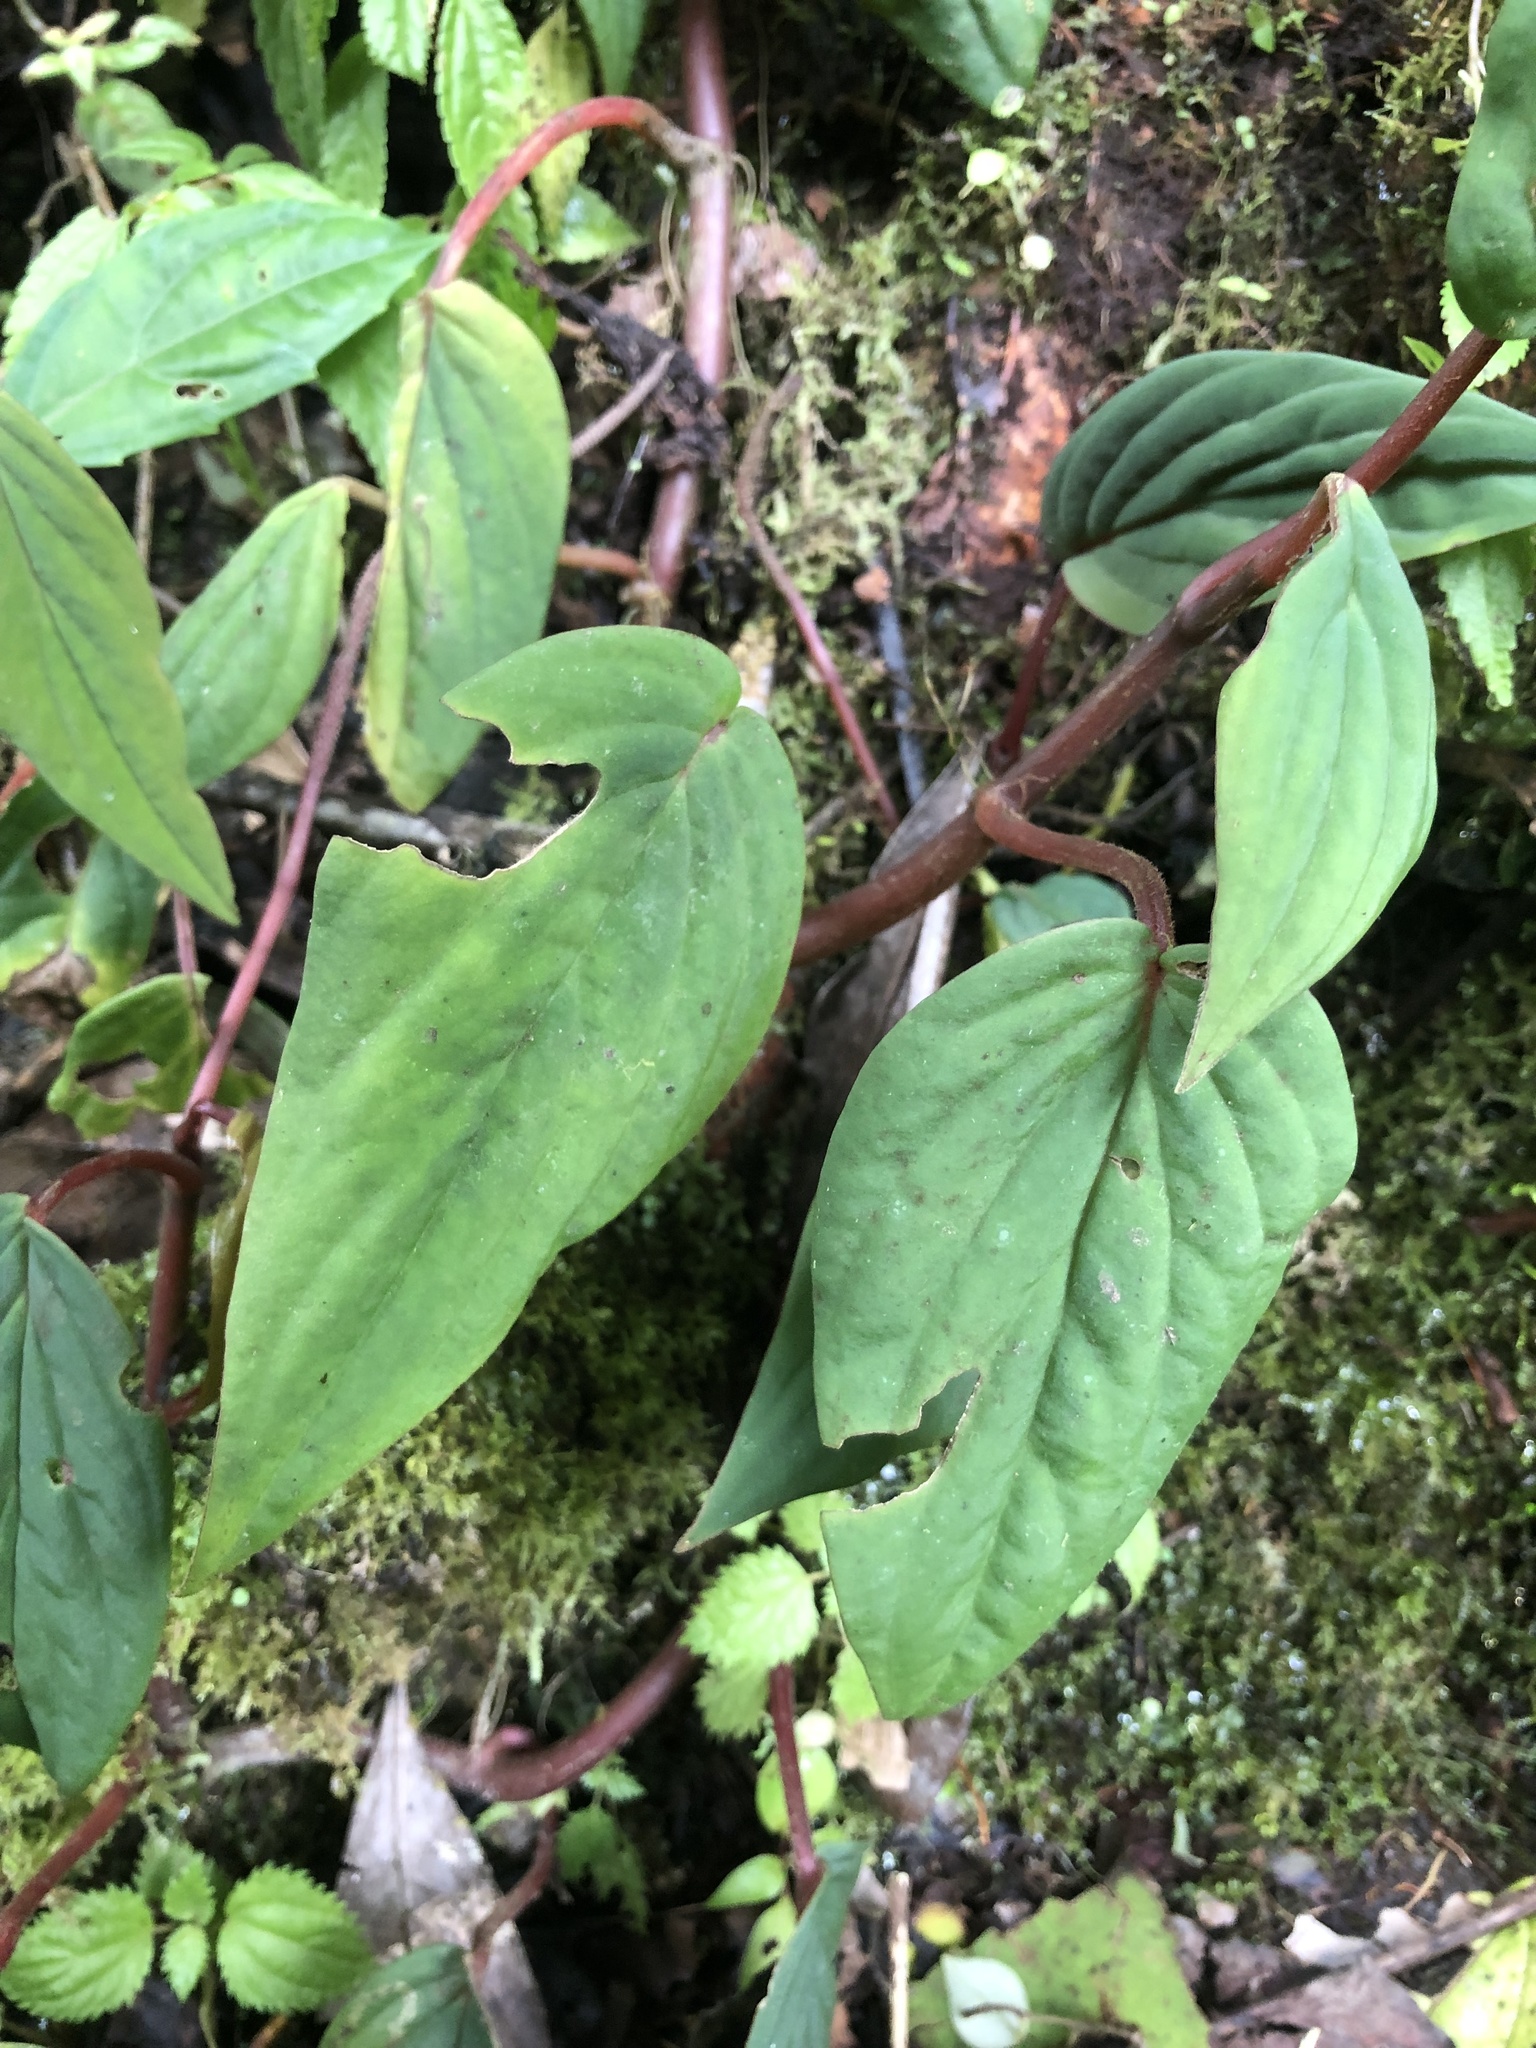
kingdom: Plantae
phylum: Tracheophyta
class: Magnoliopsida
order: Piperales
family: Piperaceae
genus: Peperomia
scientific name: Peperomia sympodialis
